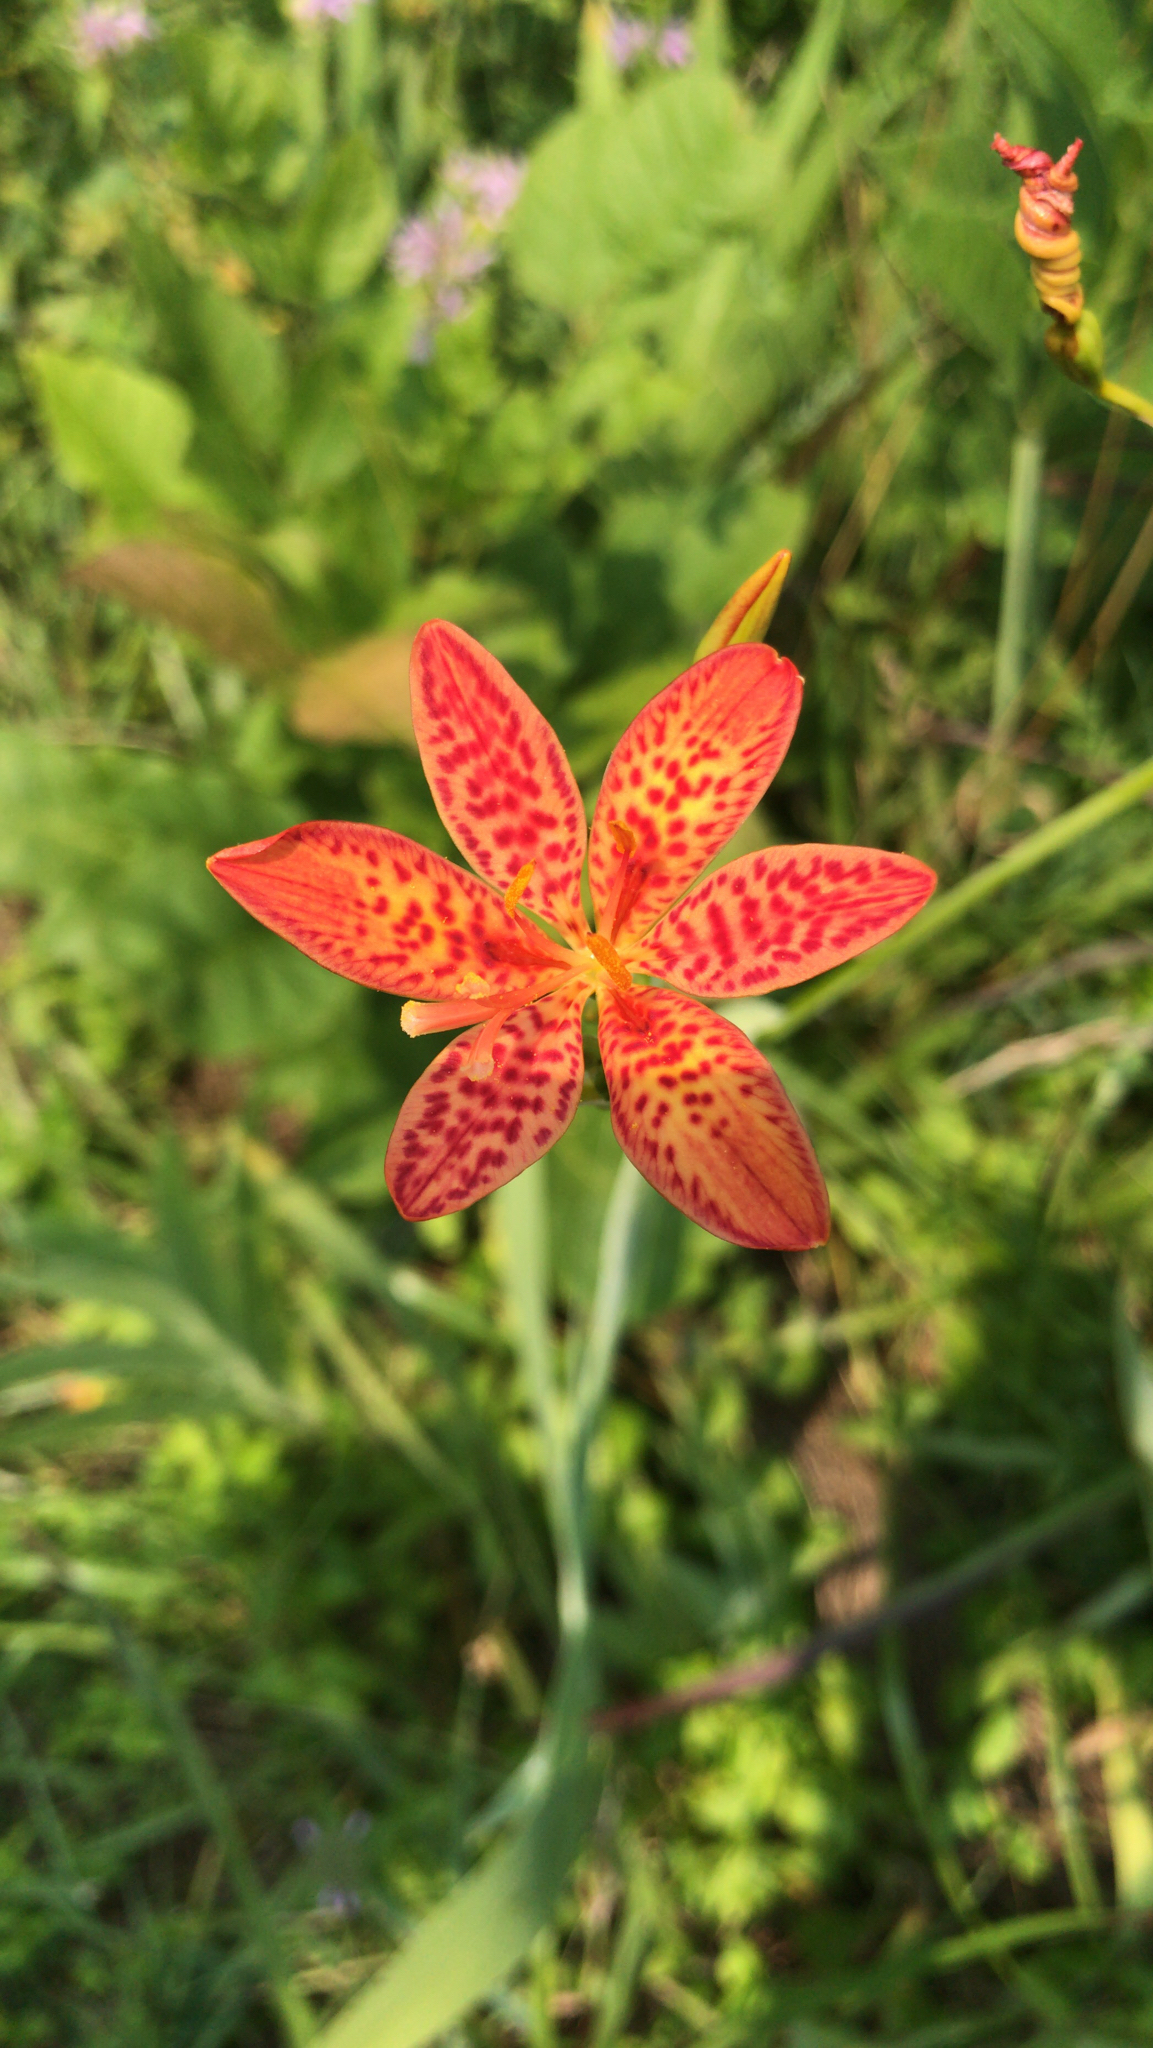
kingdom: Plantae
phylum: Tracheophyta
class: Liliopsida
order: Asparagales
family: Iridaceae
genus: Iris
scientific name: Iris domestica
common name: Belamcanda
